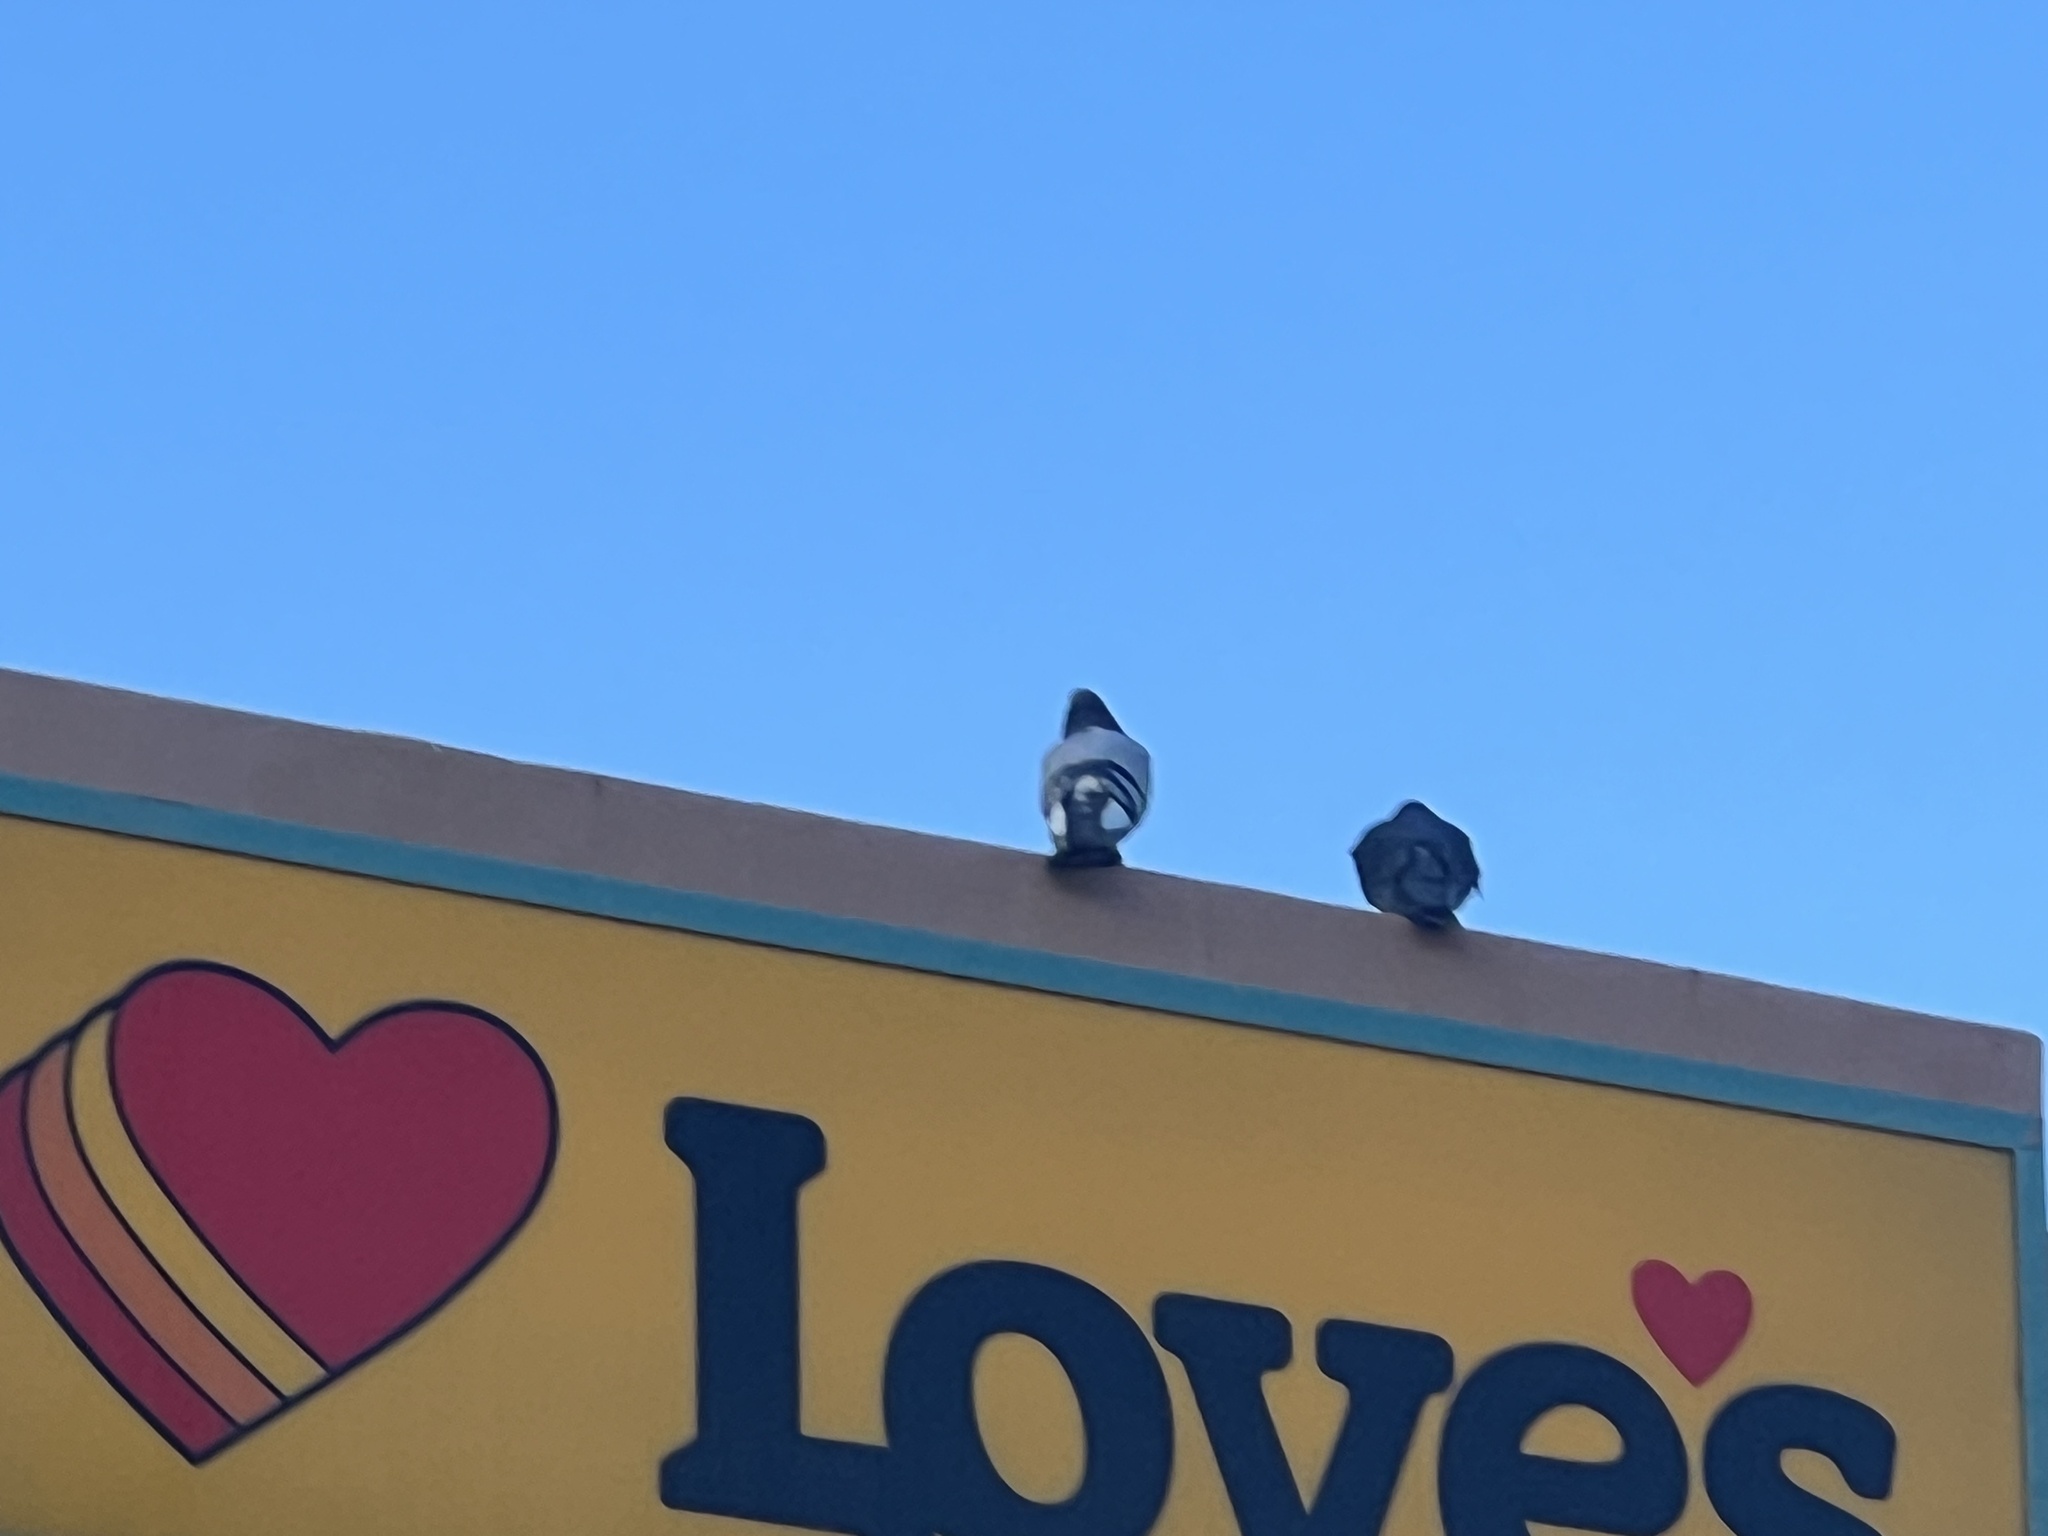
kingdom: Animalia
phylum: Chordata
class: Aves
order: Columbiformes
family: Columbidae
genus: Columba
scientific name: Columba livia
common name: Rock pigeon
